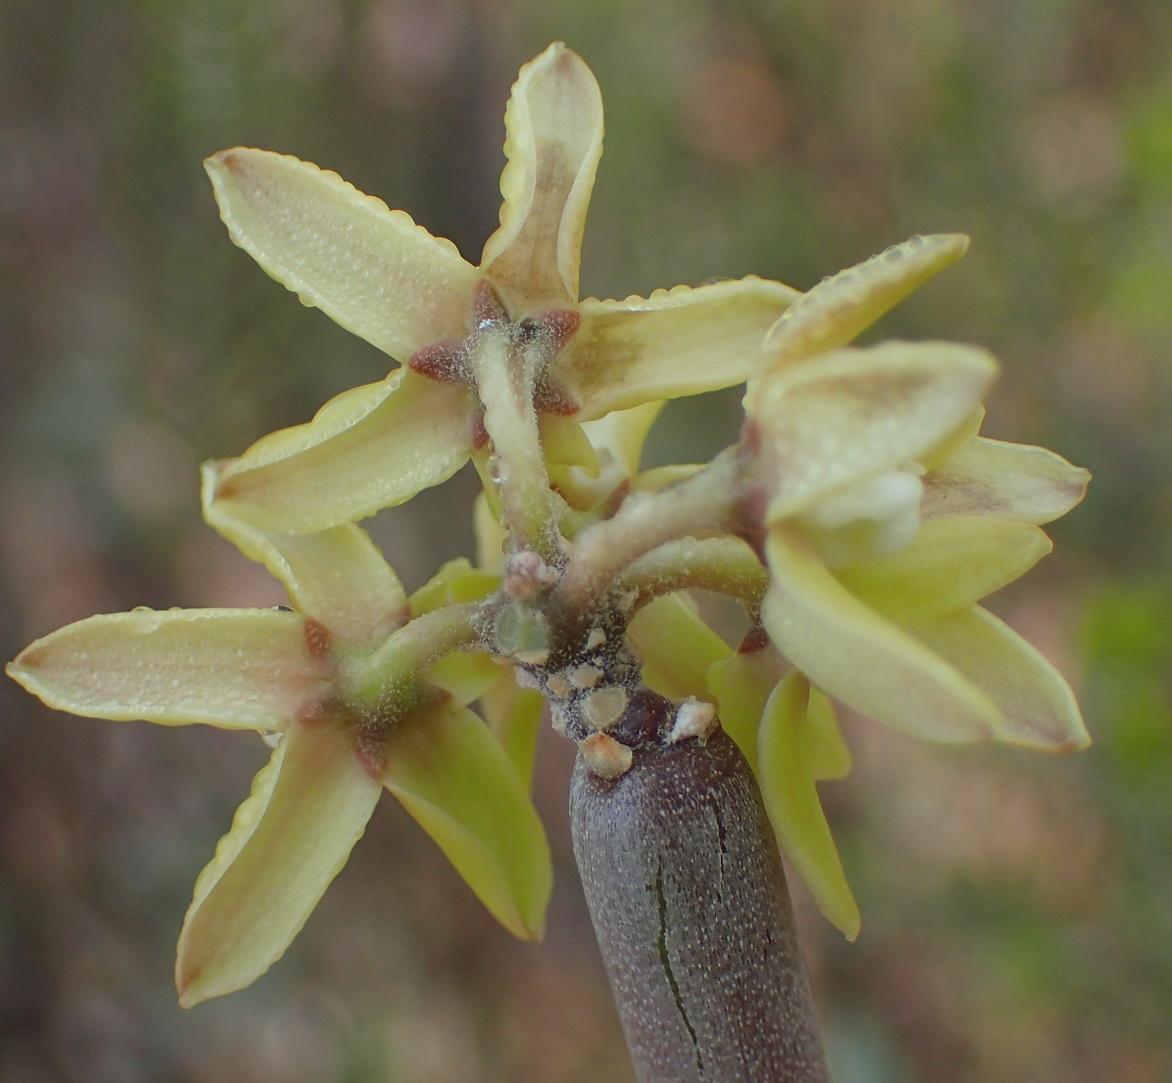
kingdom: Plantae
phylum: Tracheophyta
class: Magnoliopsida
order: Gentianales
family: Apocynaceae
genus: Cynanchum
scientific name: Cynanchum viminale
